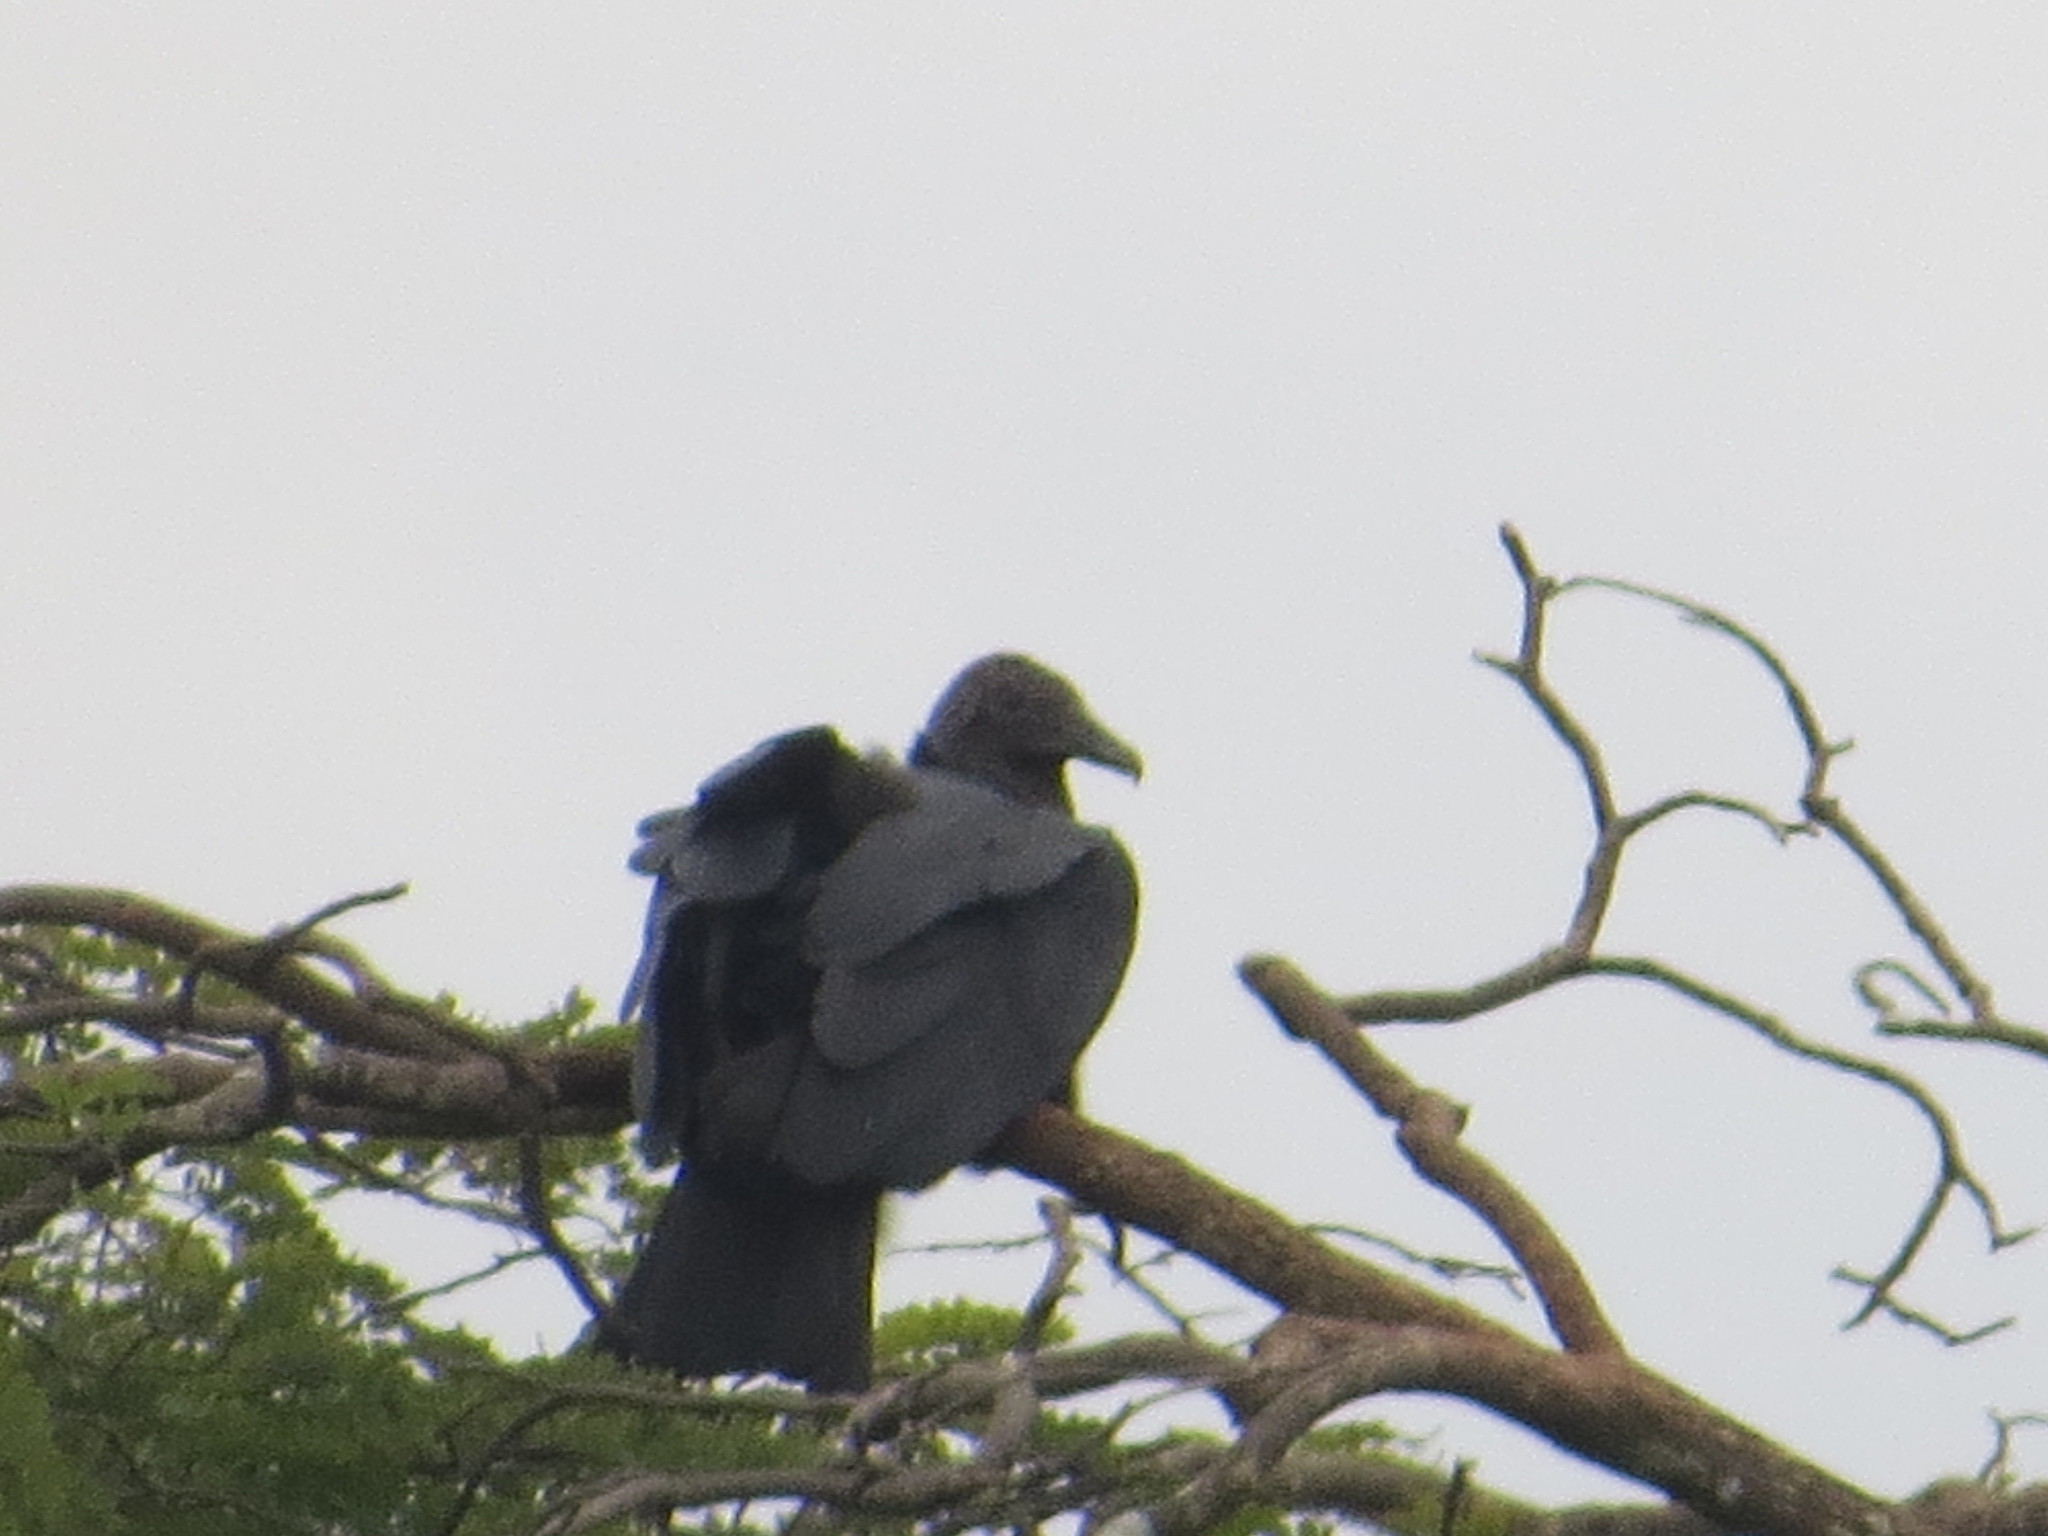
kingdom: Animalia
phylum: Chordata
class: Aves
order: Accipitriformes
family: Cathartidae
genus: Coragyps
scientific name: Coragyps atratus
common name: Black vulture
